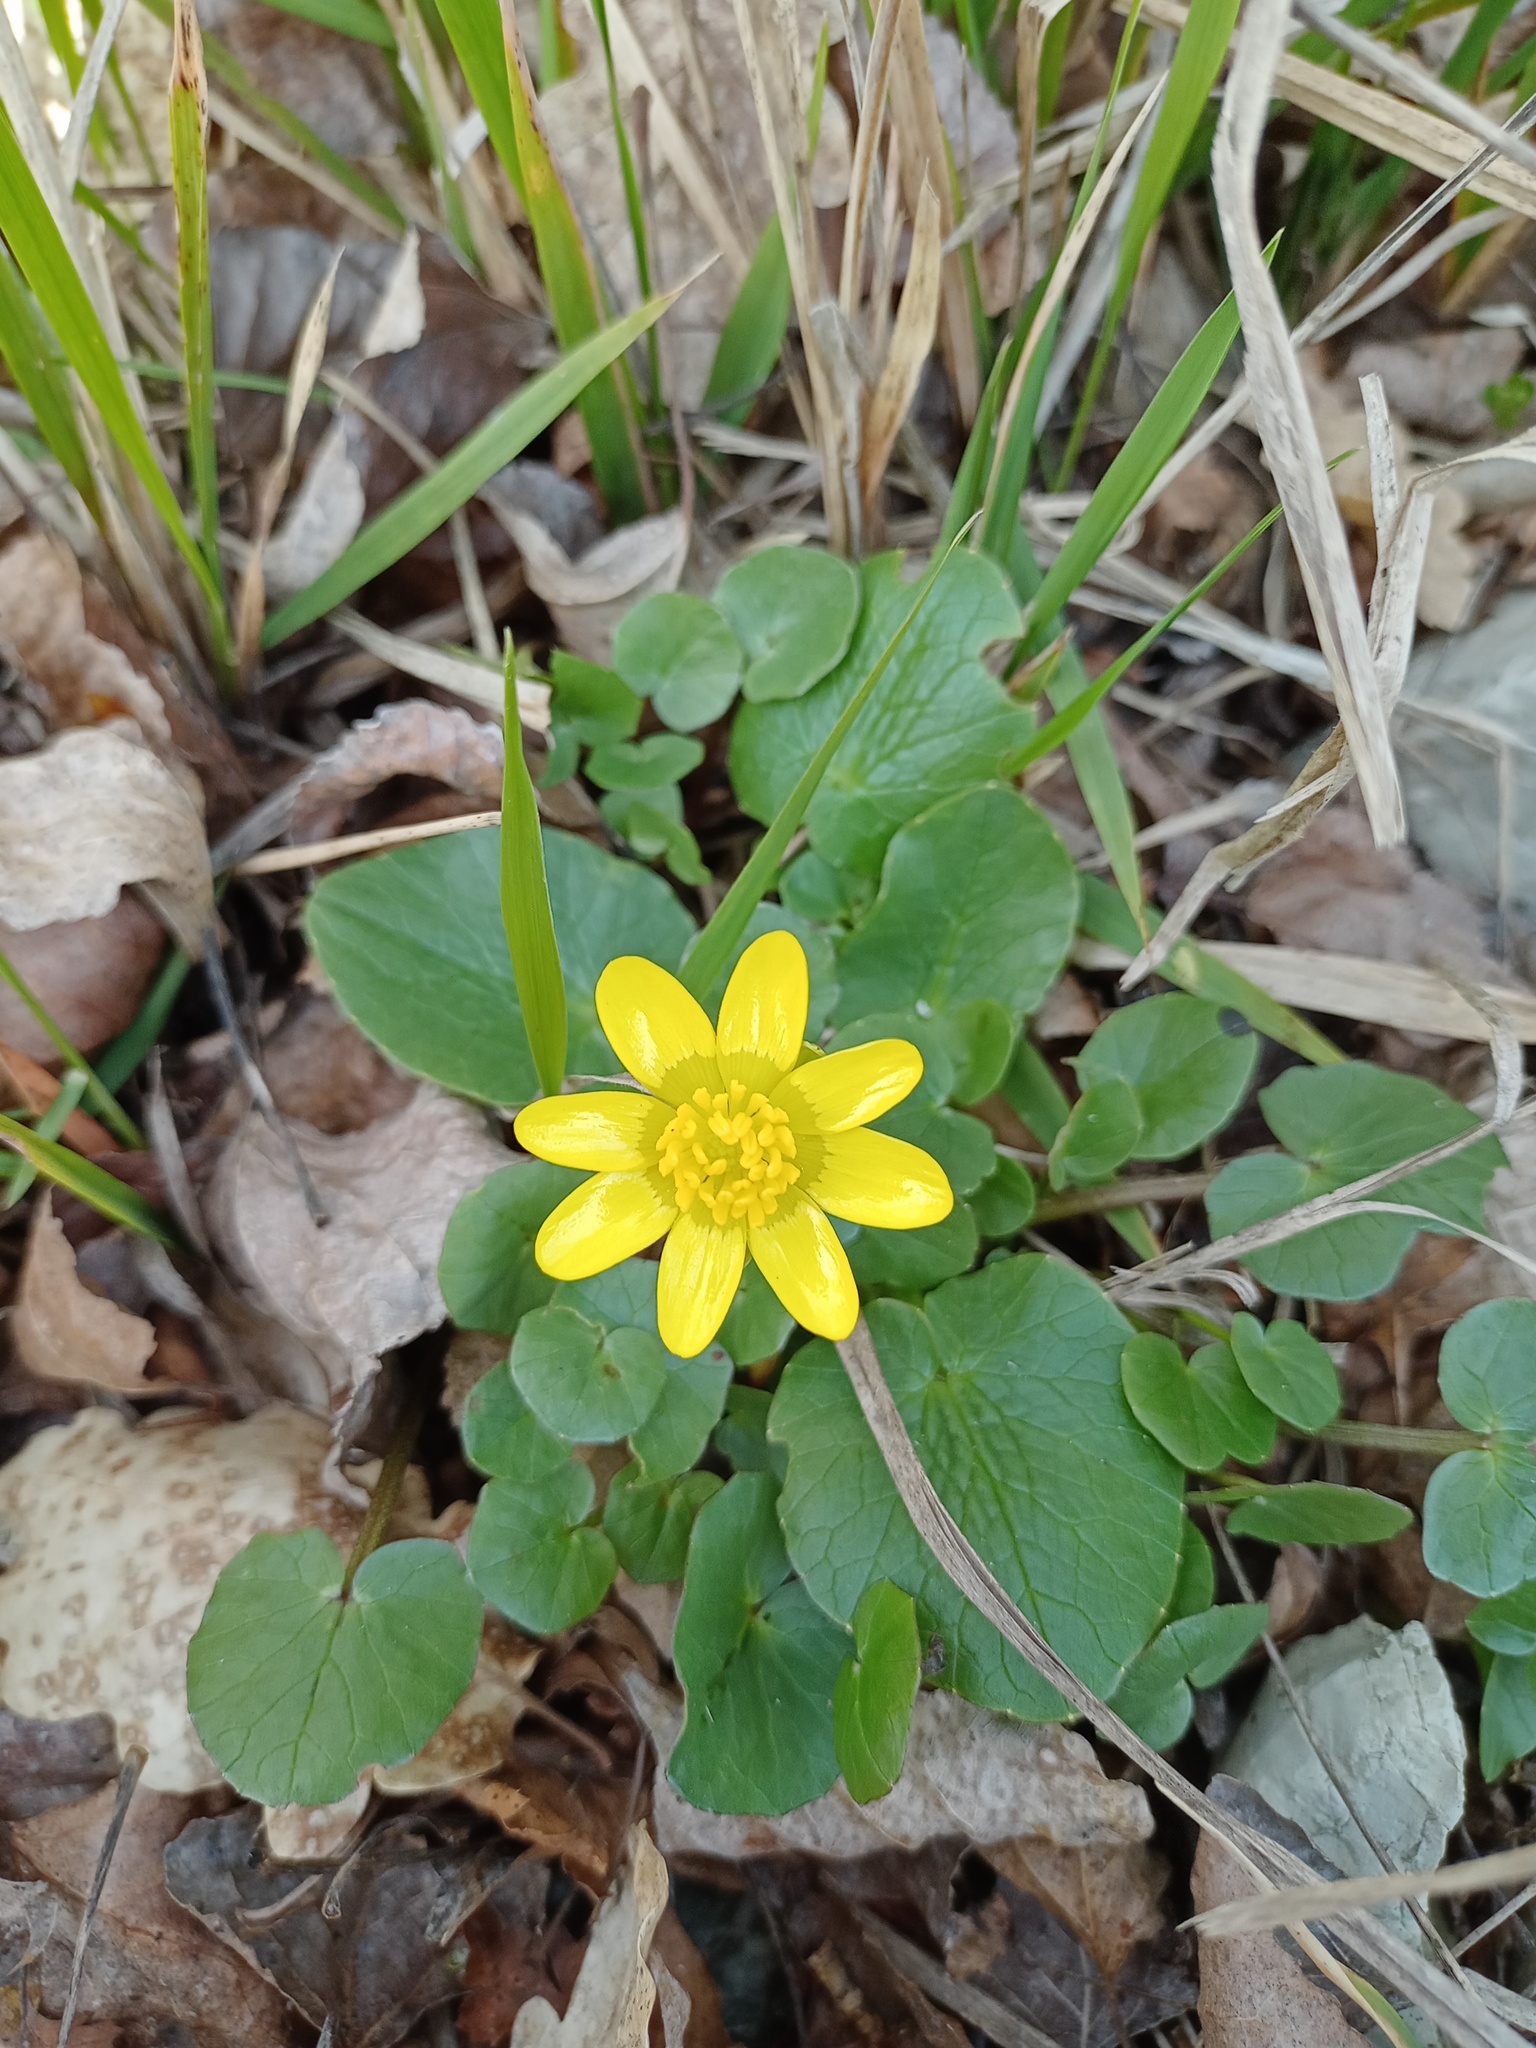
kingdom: Plantae
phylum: Tracheophyta
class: Magnoliopsida
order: Ranunculales
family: Ranunculaceae
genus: Ficaria
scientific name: Ficaria verna
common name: Lesser celandine
